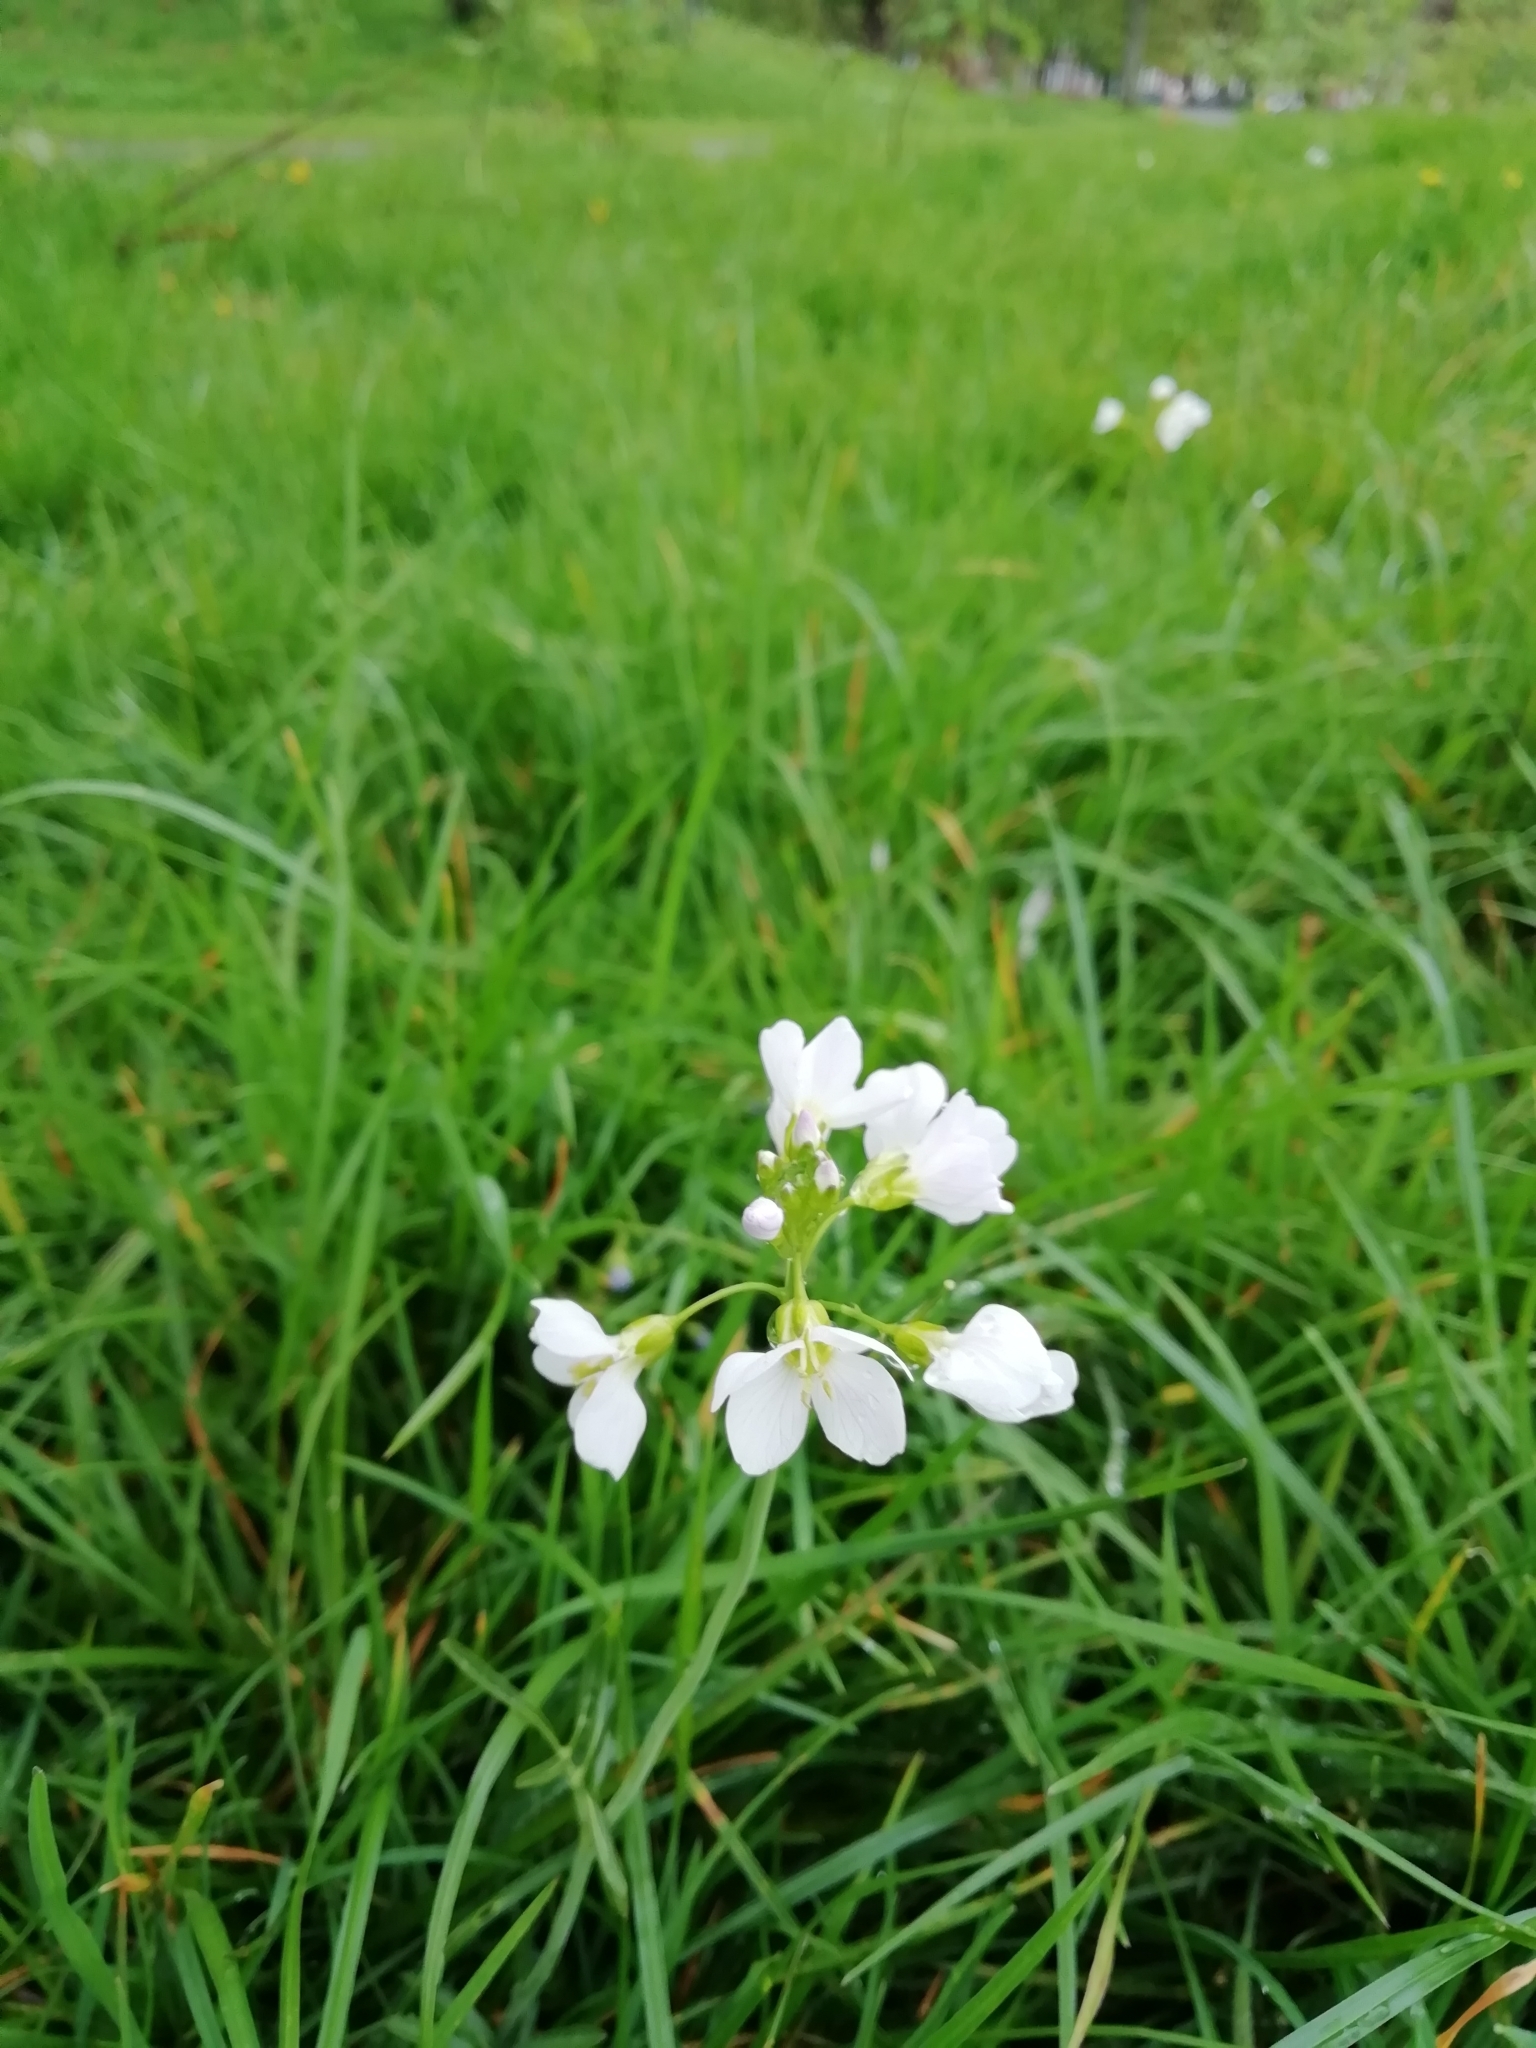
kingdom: Plantae
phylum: Tracheophyta
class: Magnoliopsida
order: Brassicales
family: Brassicaceae
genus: Cardamine
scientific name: Cardamine pratensis
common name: Cuckoo flower
